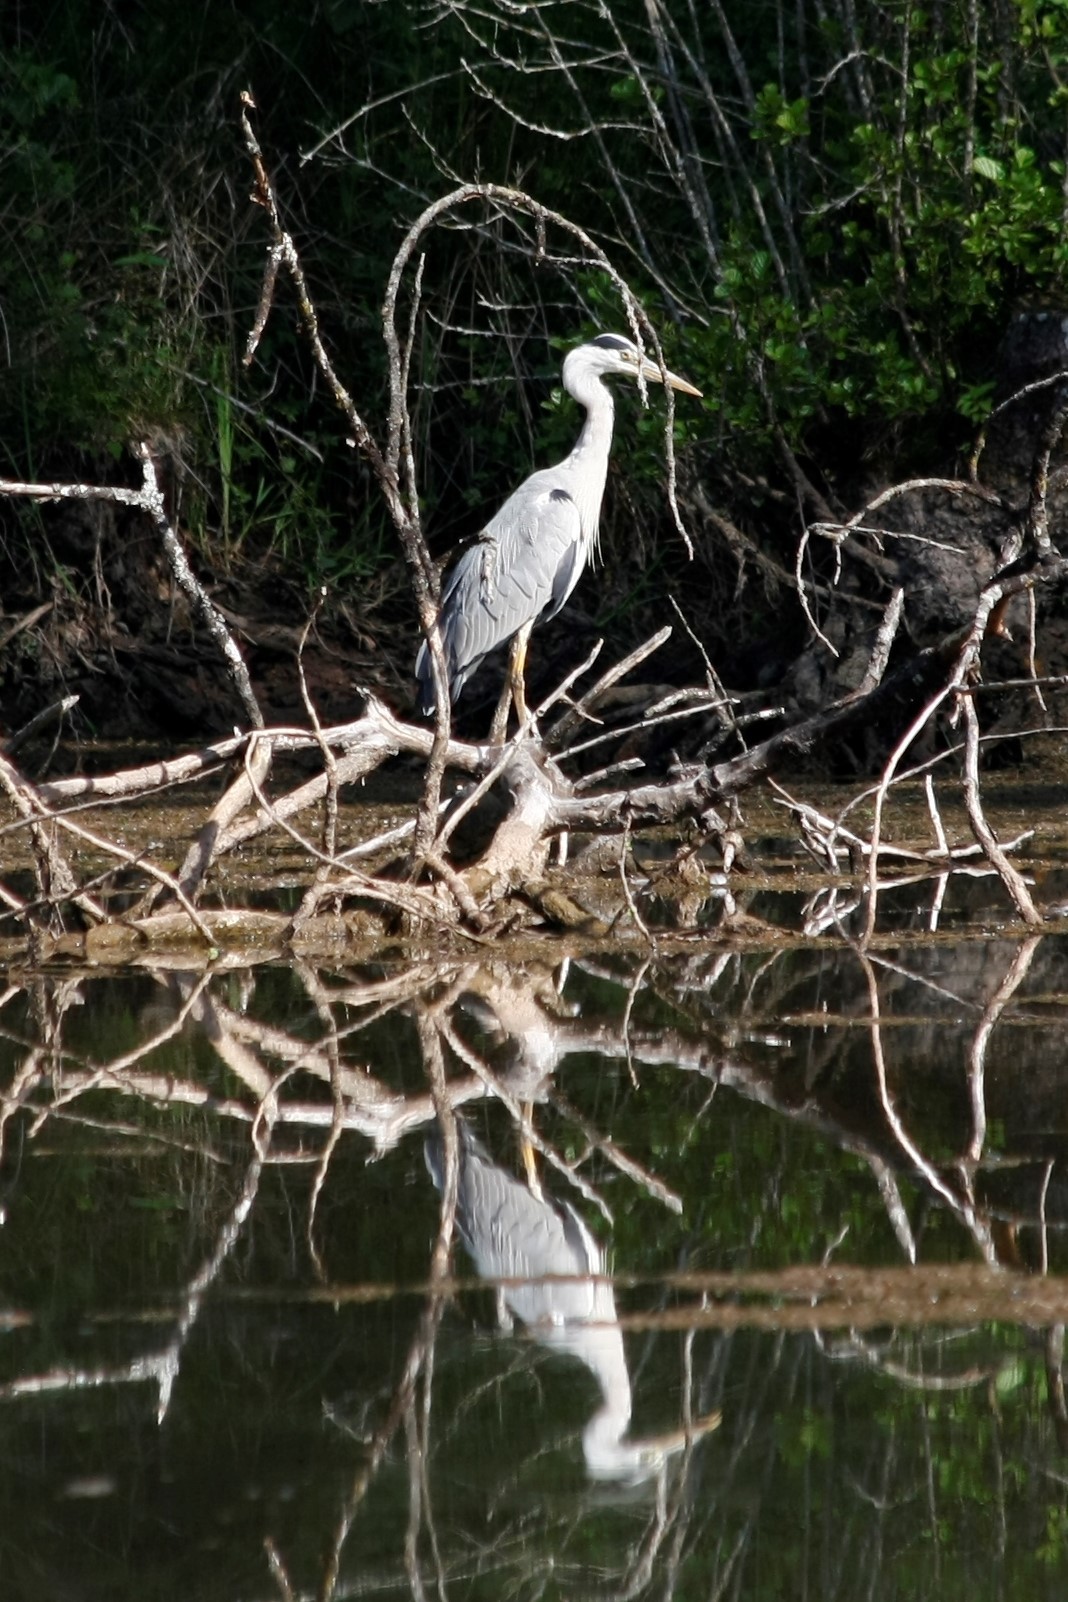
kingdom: Animalia
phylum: Chordata
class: Aves
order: Pelecaniformes
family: Ardeidae
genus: Ardea
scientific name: Ardea cinerea
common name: Grey heron
